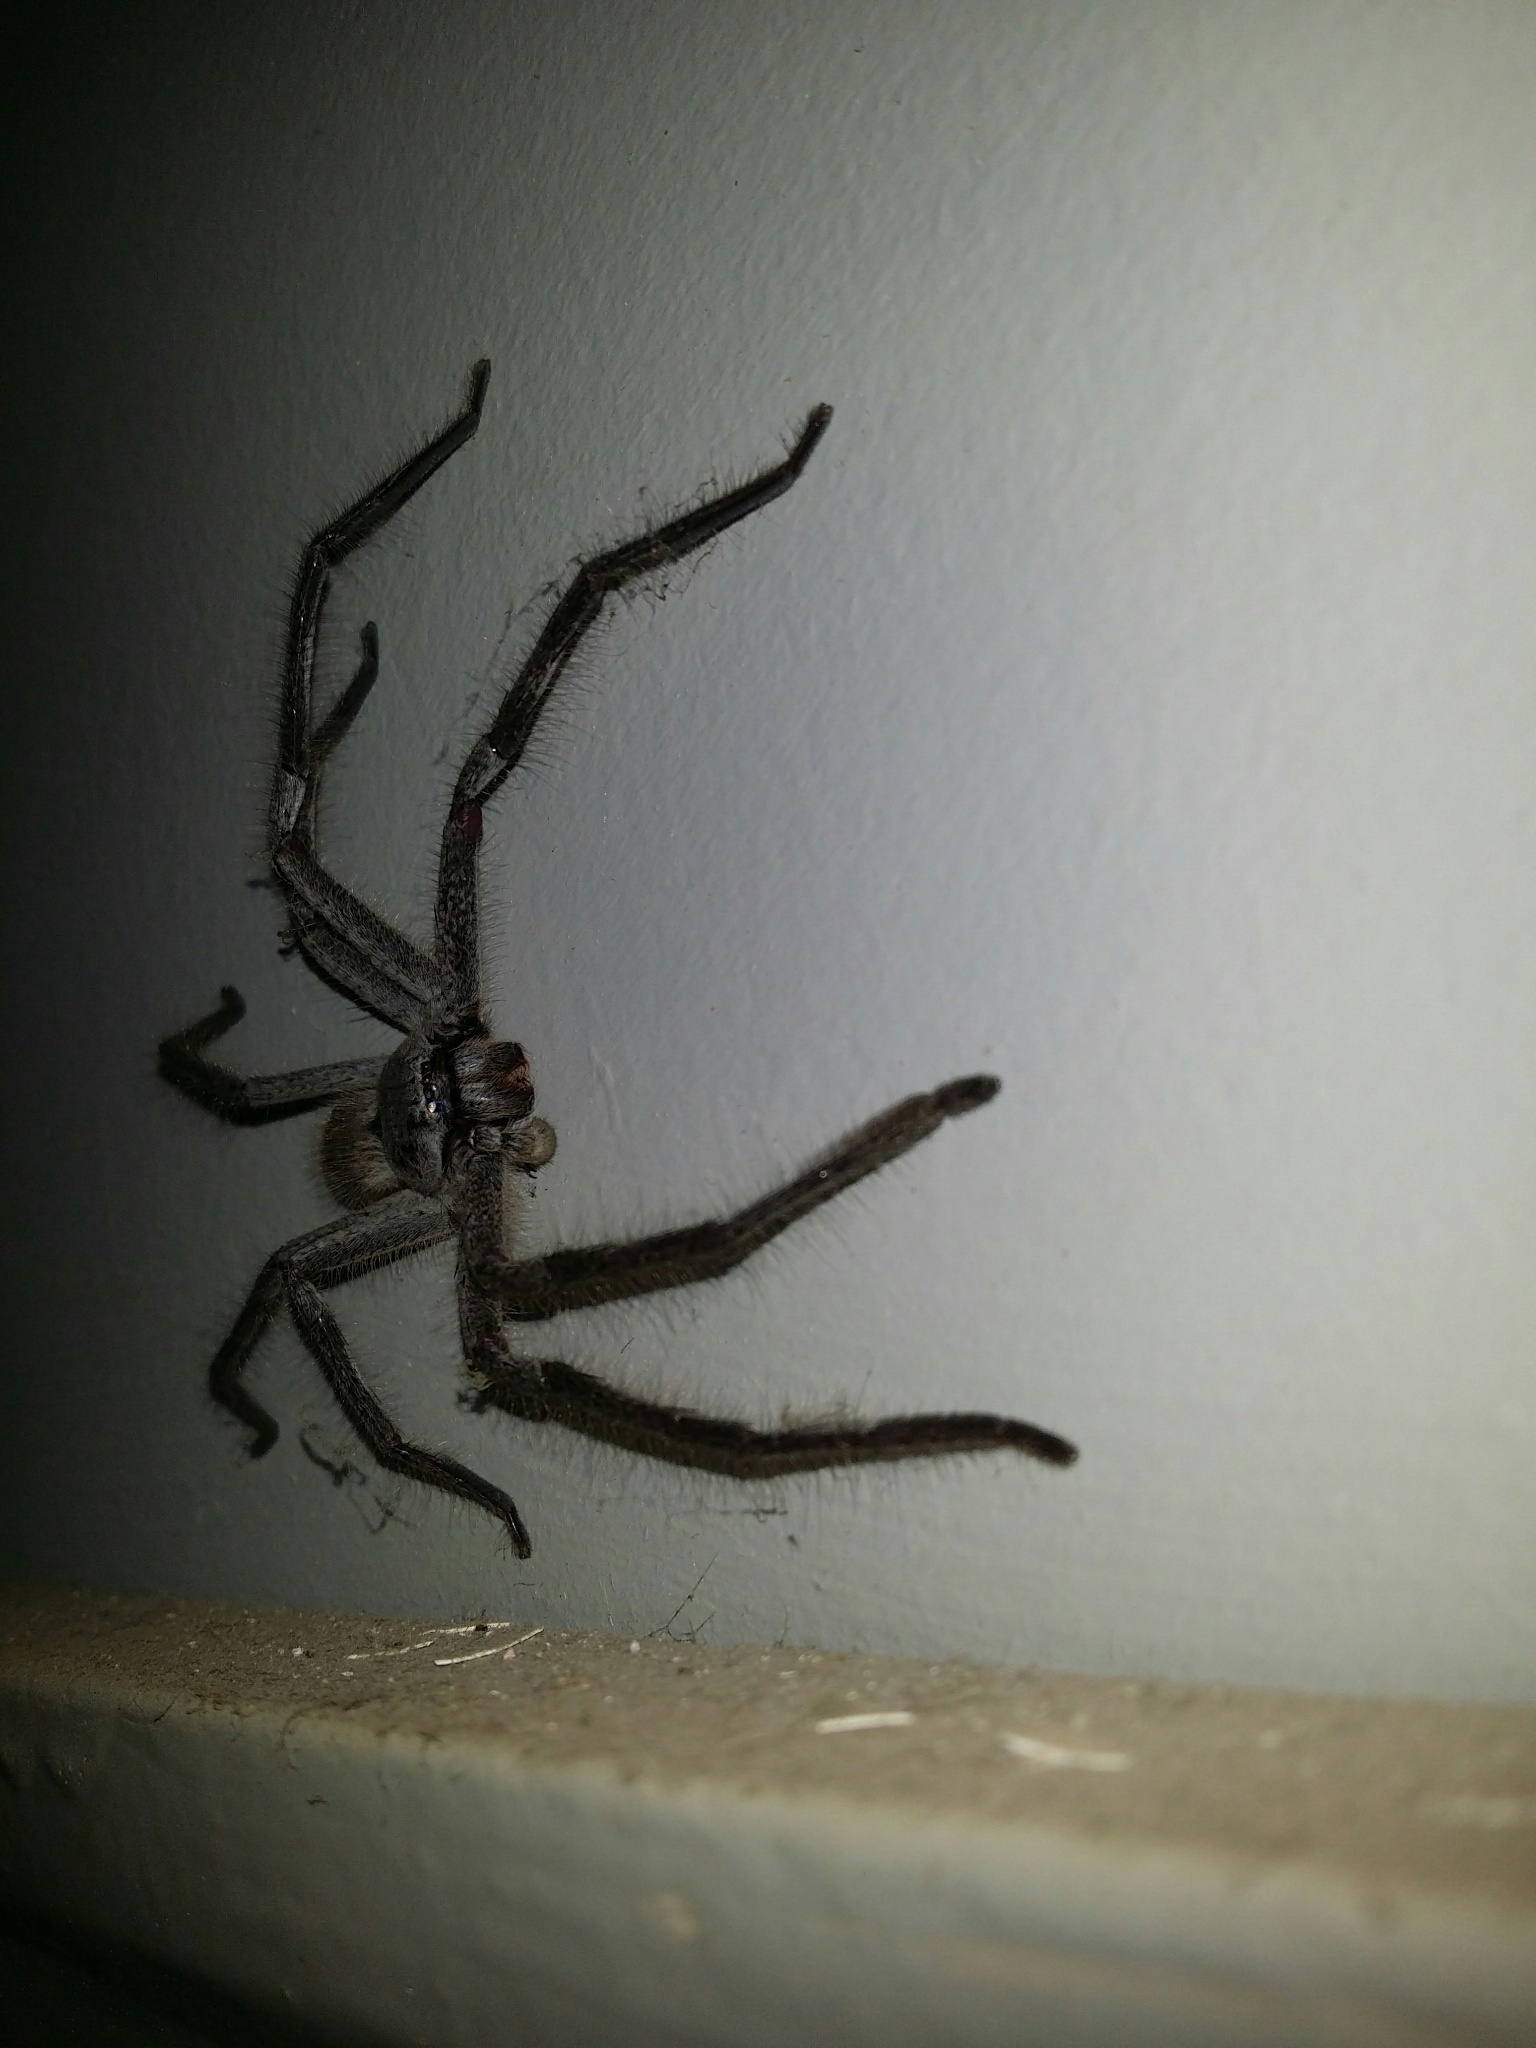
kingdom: Animalia
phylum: Arthropoda
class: Arachnida
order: Araneae
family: Sparassidae
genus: Isopeda
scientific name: Isopeda leishmanni
